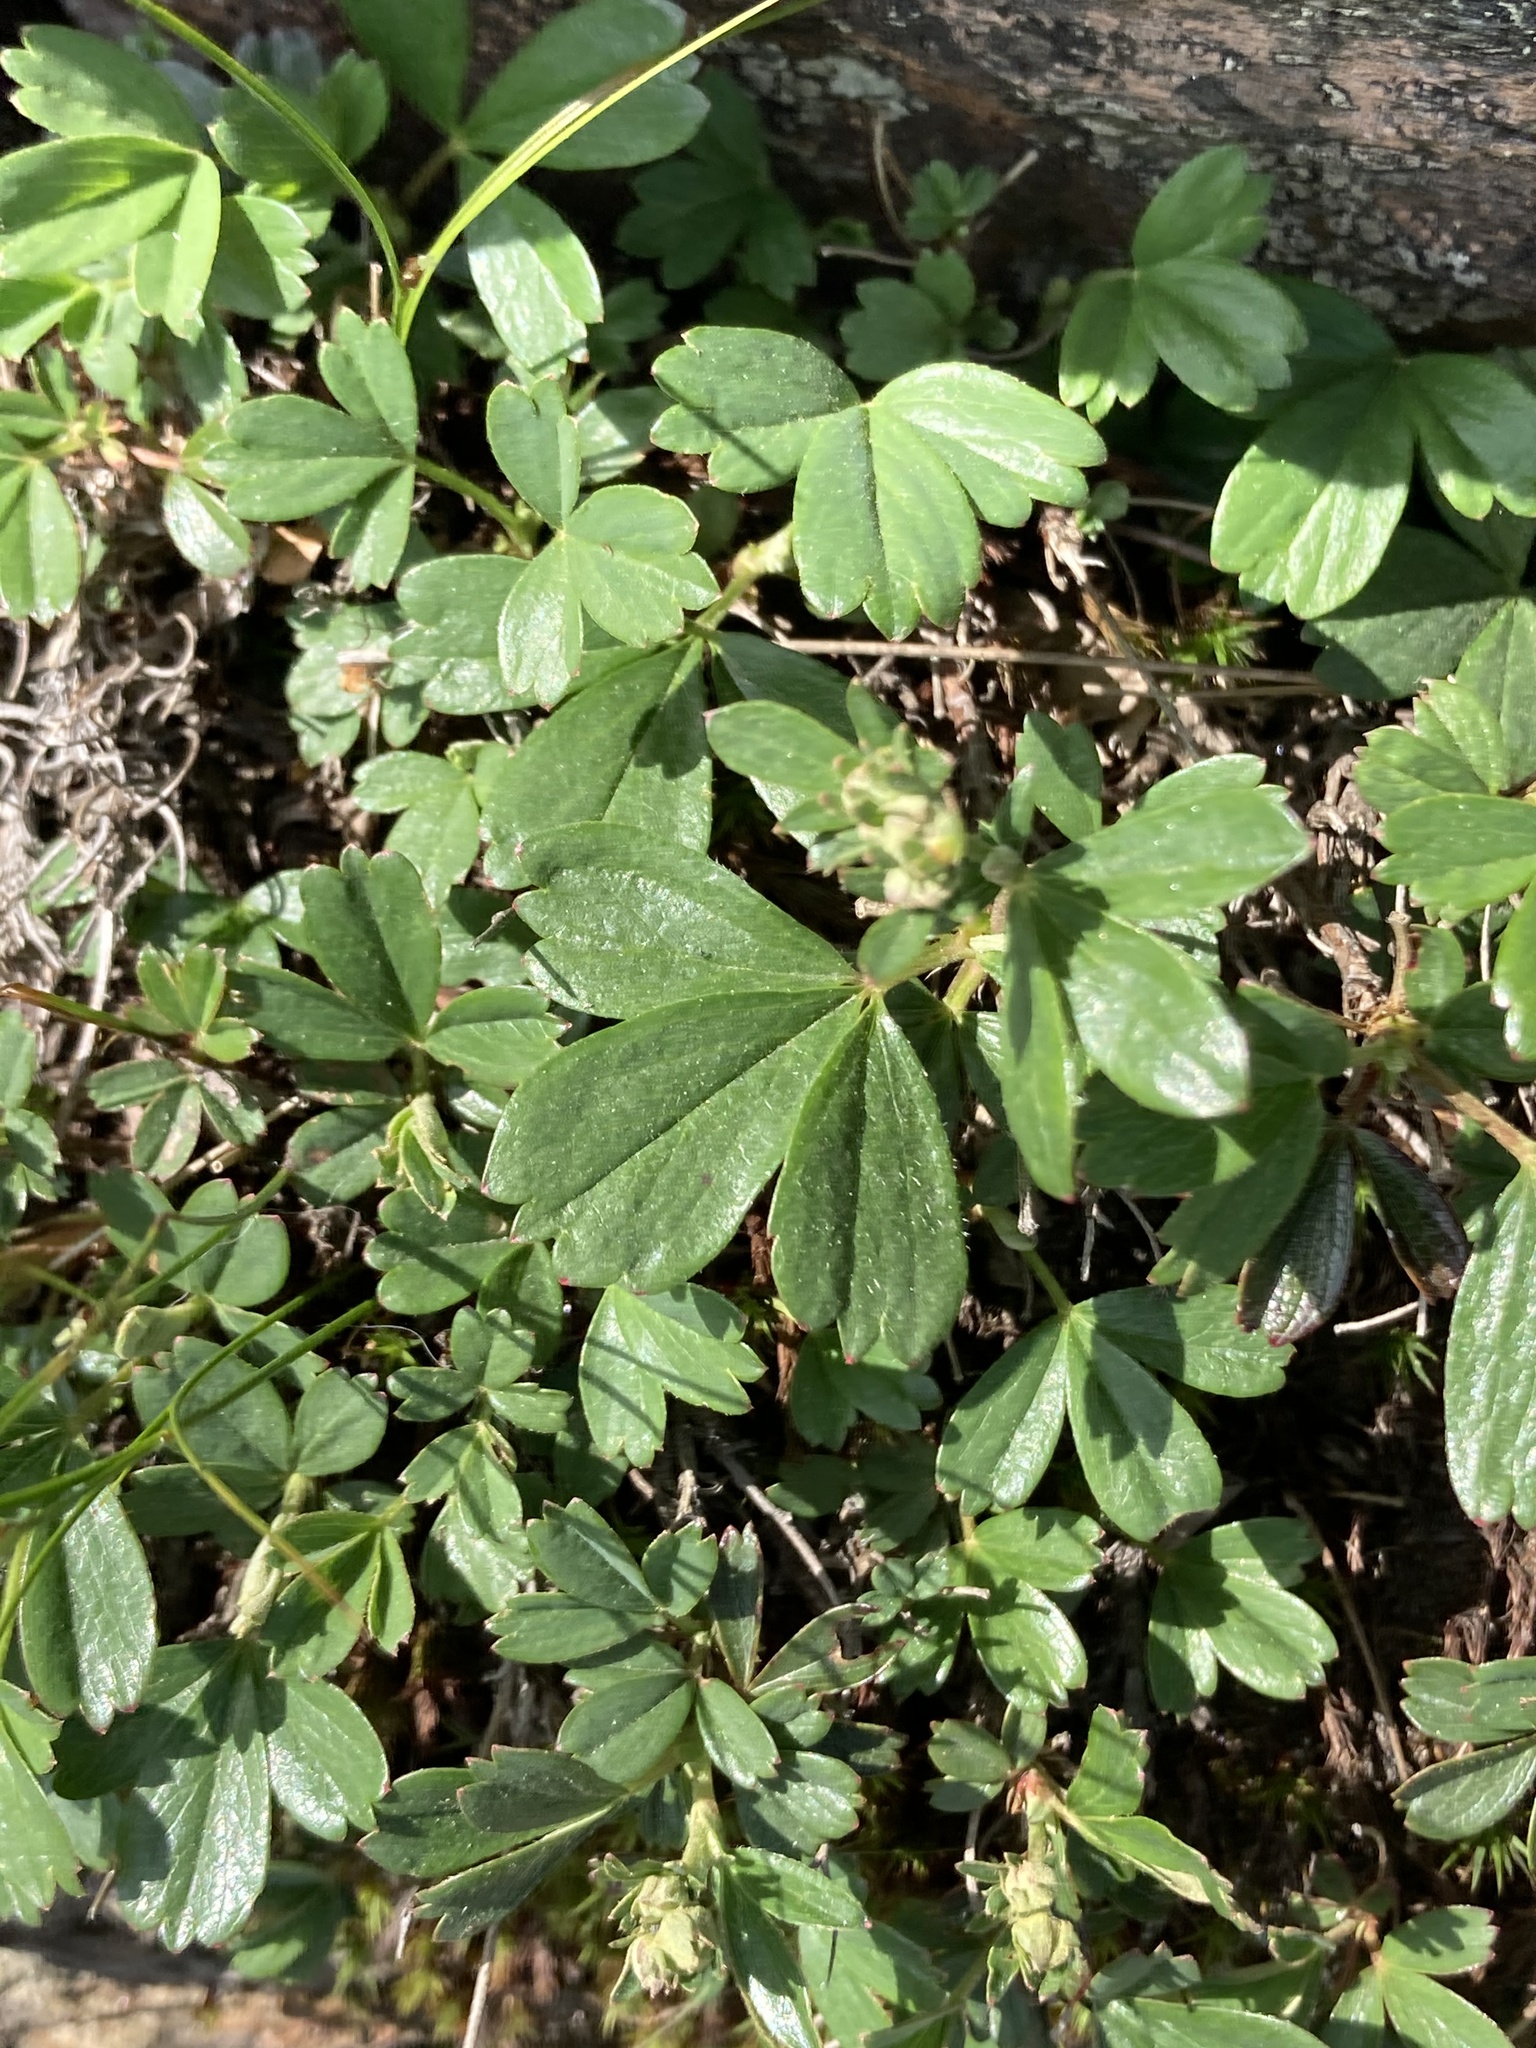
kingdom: Plantae
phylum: Tracheophyta
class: Magnoliopsida
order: Rosales
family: Rosaceae
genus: Sibbaldia
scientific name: Sibbaldia tridentata
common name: Three-toothed cinquefoil
